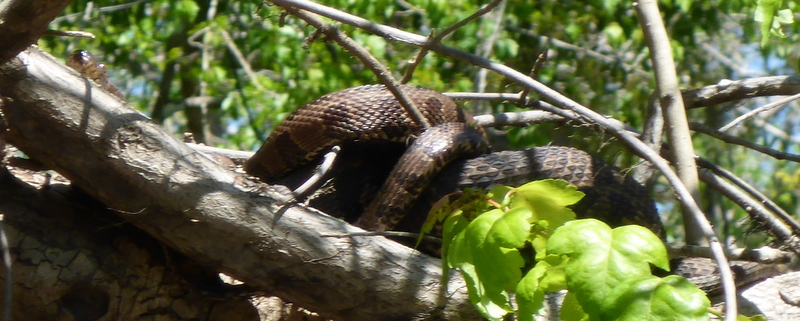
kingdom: Animalia
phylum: Chordata
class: Squamata
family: Colubridae
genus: Nerodia
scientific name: Nerodia taxispilota
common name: Brown water snake
